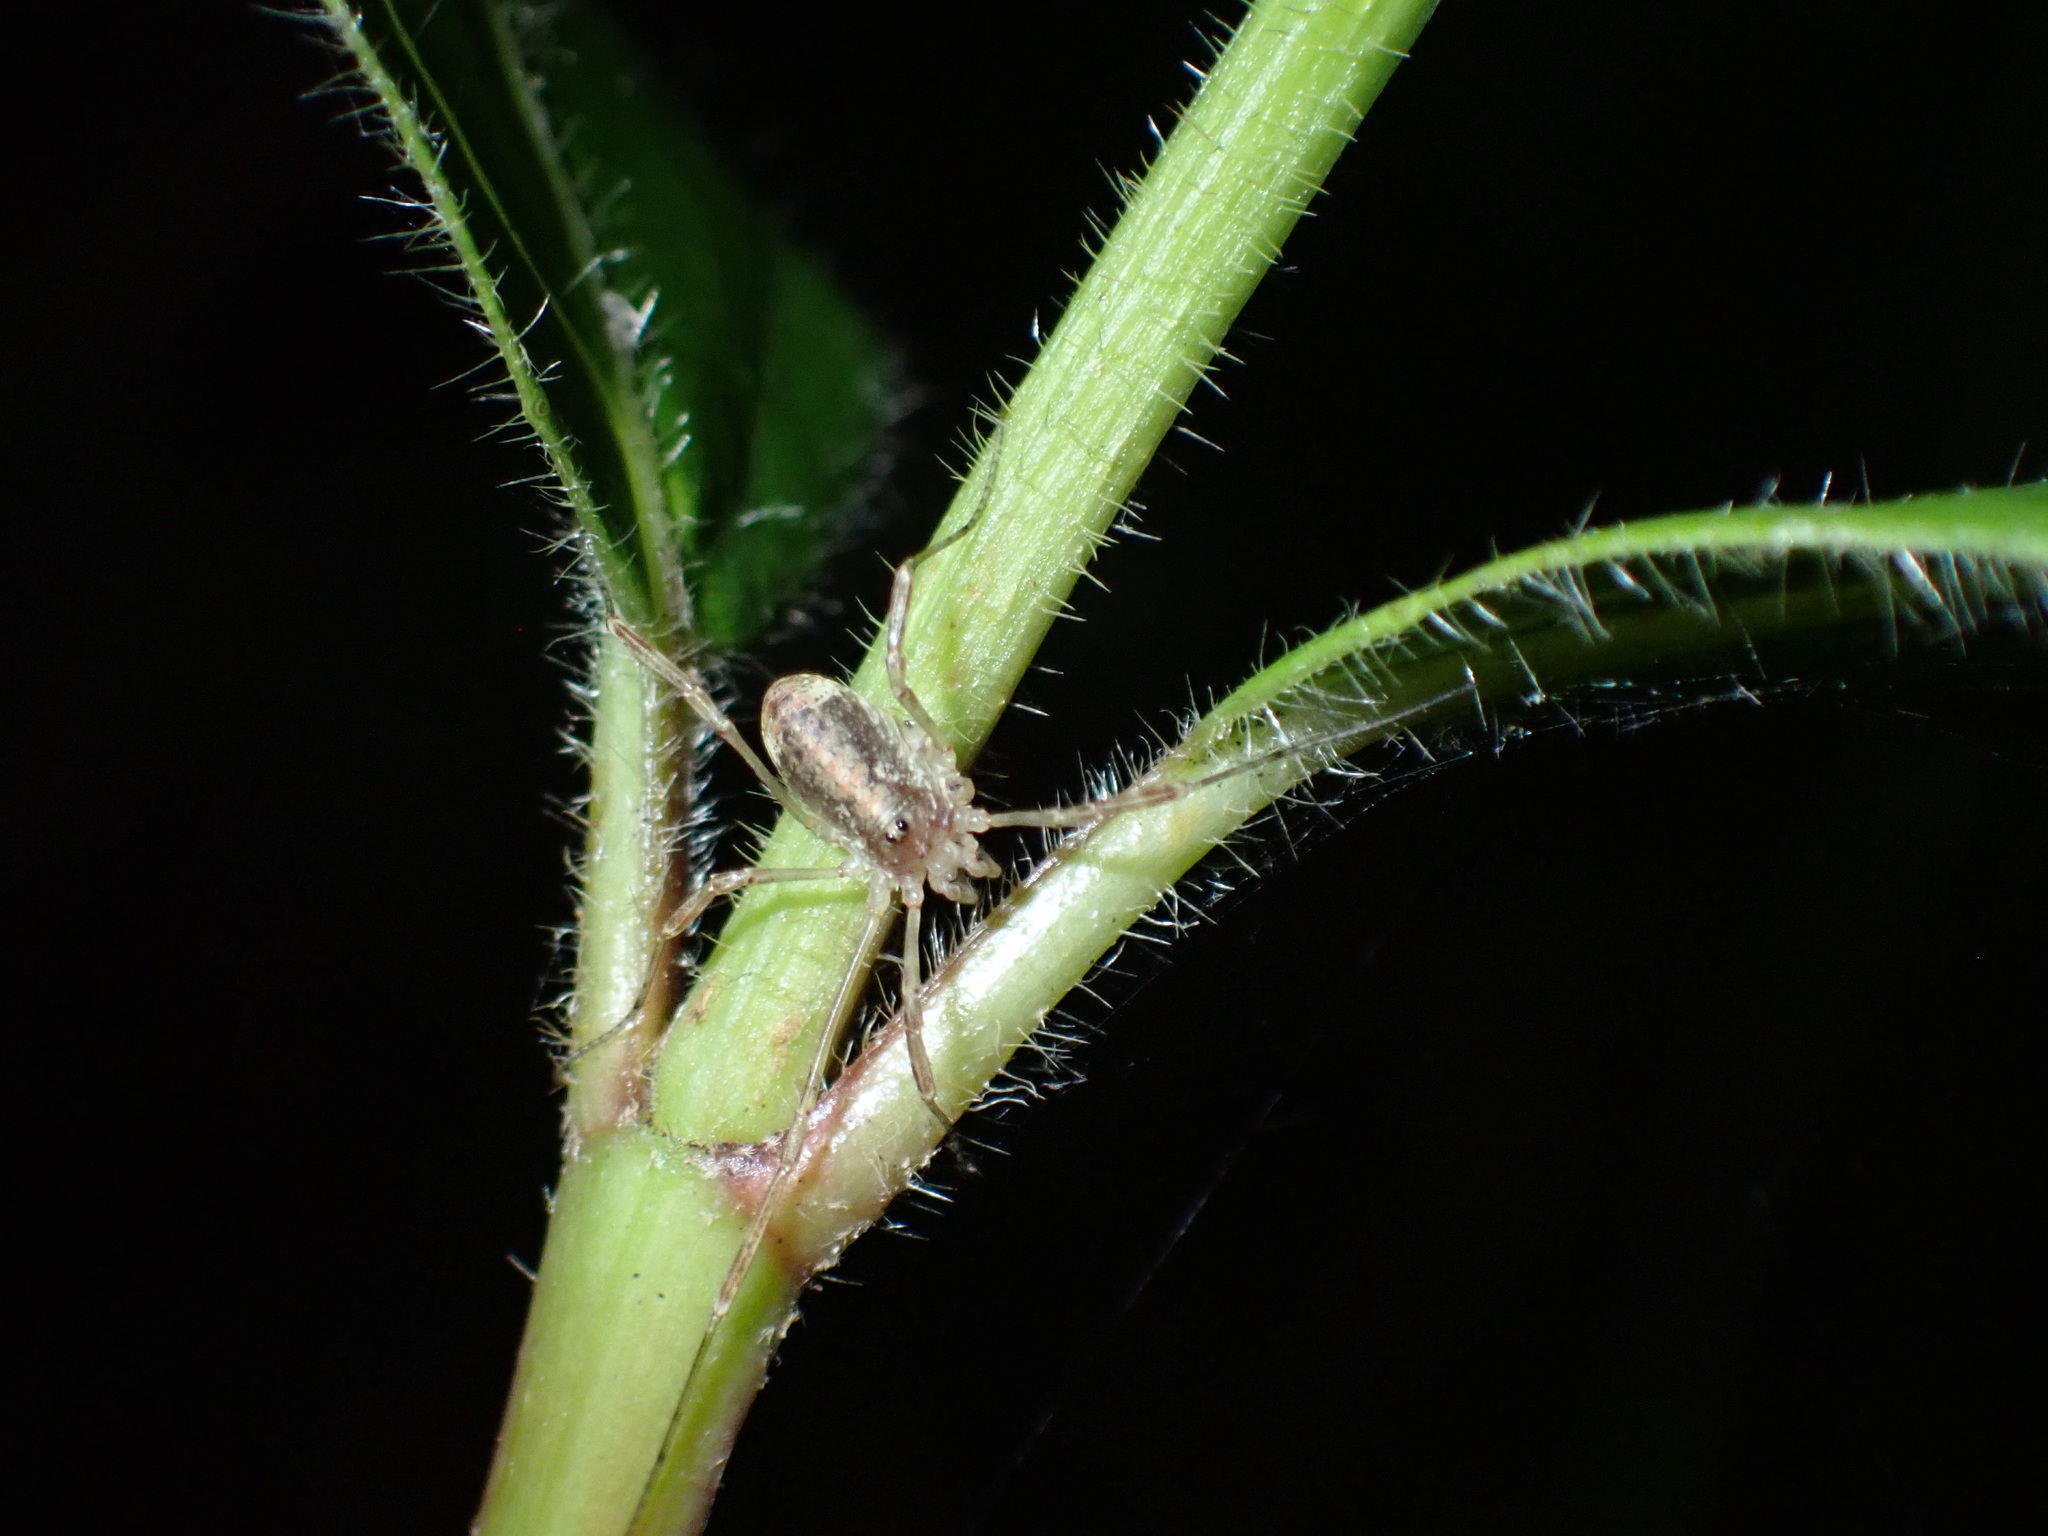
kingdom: Animalia
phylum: Arthropoda
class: Arachnida
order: Opiliones
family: Phalangiidae
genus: Paroligolophus
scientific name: Paroligolophus agrestis
